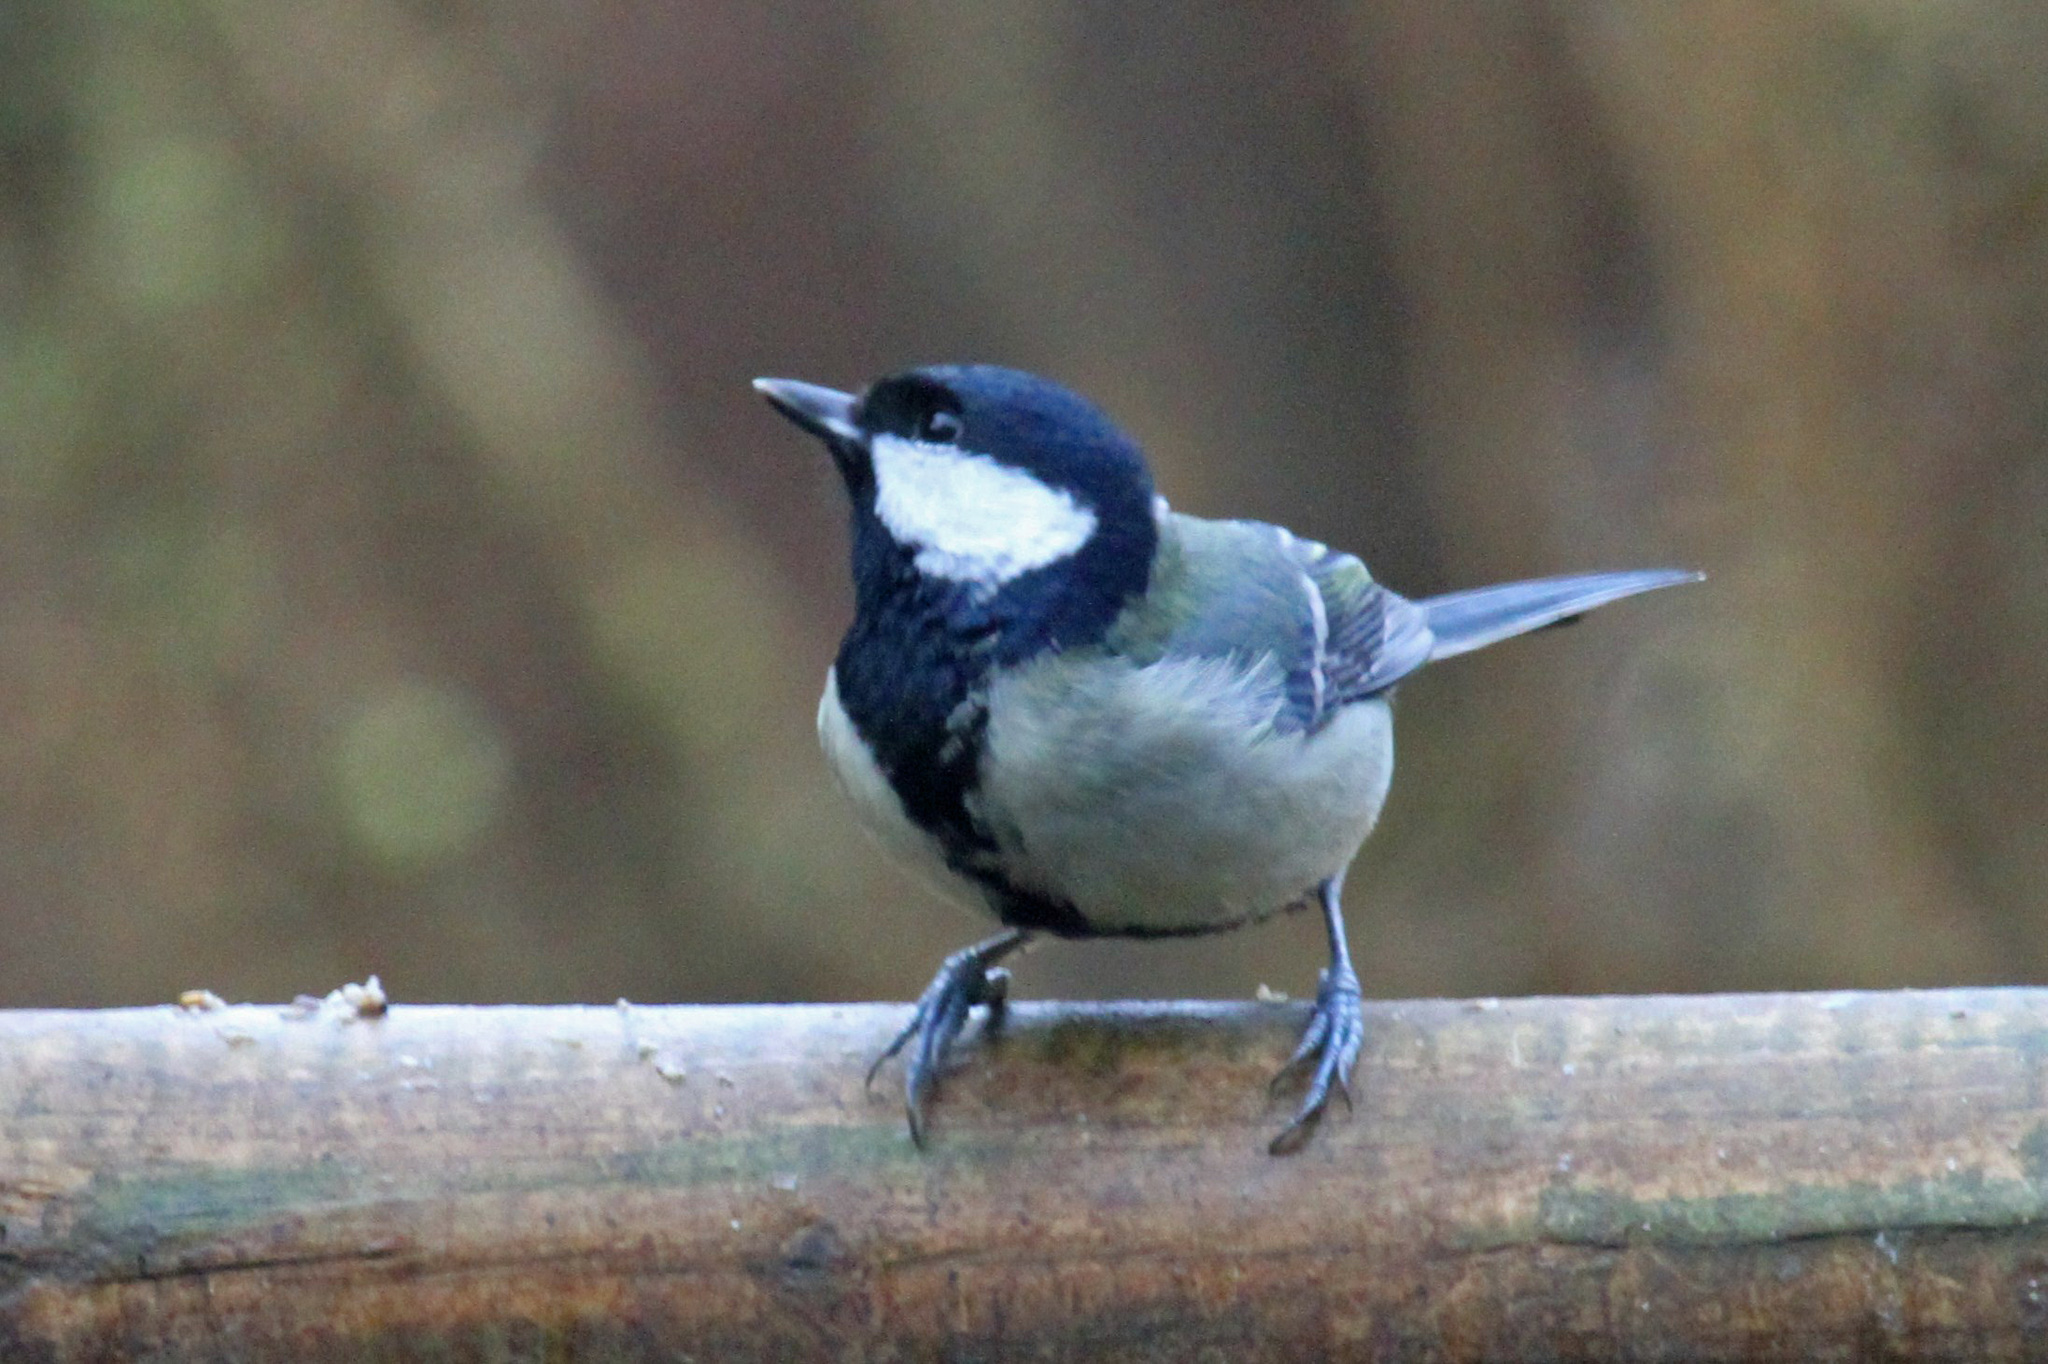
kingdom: Animalia
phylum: Chordata
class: Aves
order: Passeriformes
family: Paridae
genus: Parus
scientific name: Parus major
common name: Great tit
